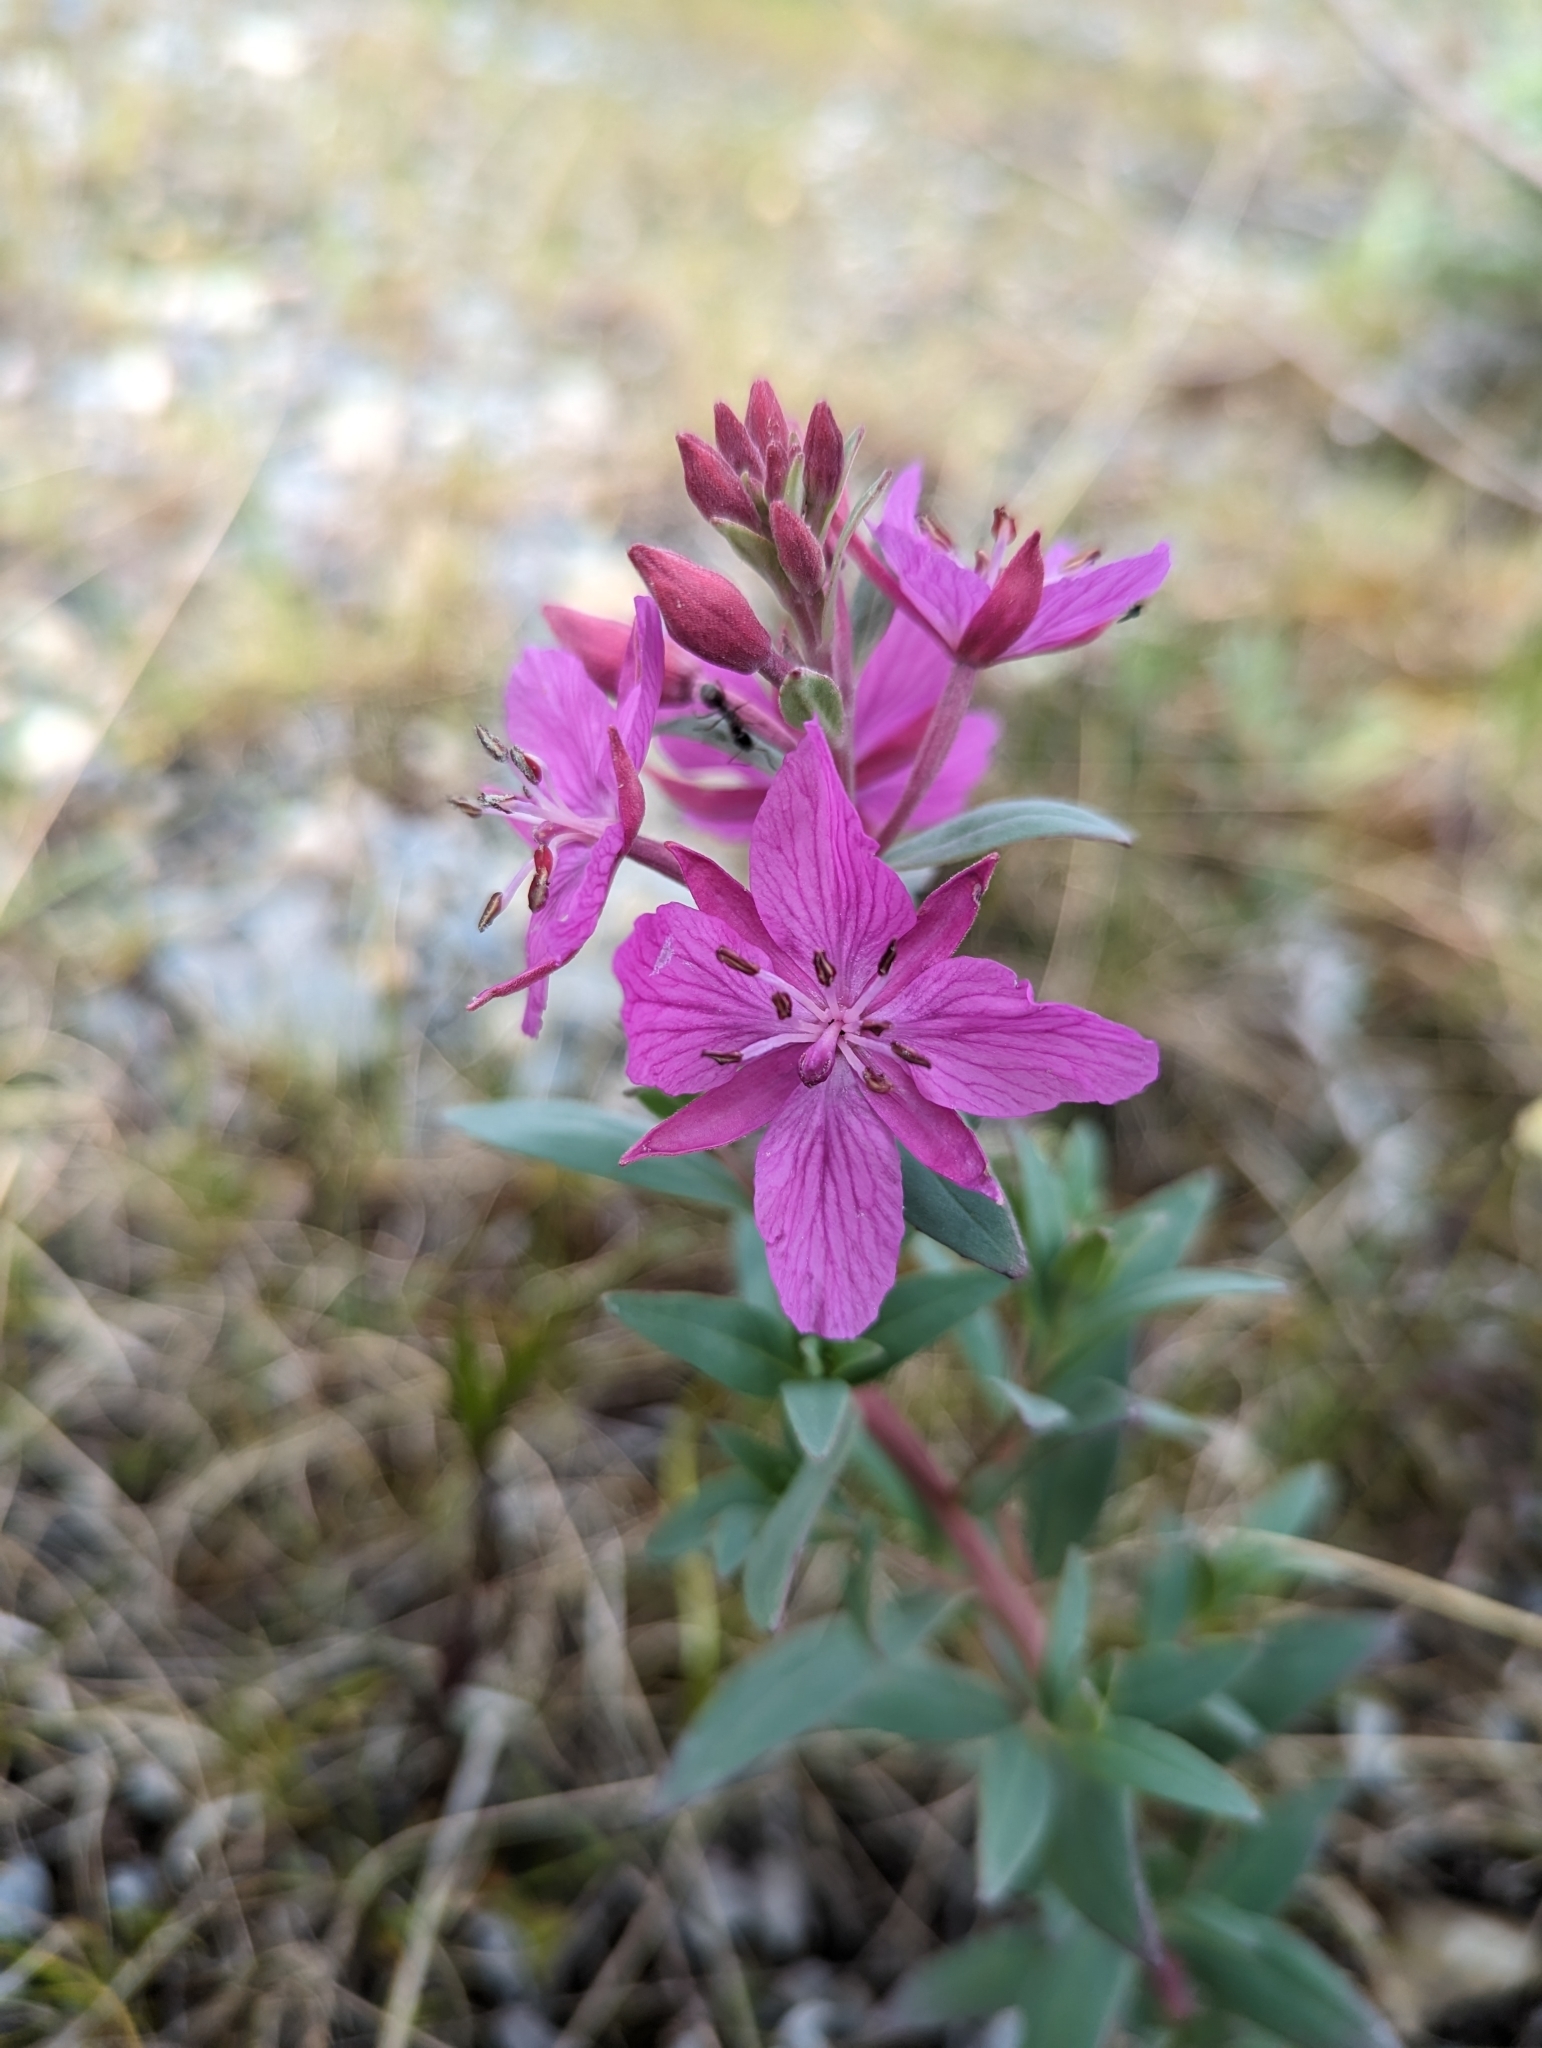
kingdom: Plantae
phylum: Tracheophyta
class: Magnoliopsida
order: Myrtales
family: Onagraceae
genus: Chamaenerion
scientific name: Chamaenerion latifolium
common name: Dwarf fireweed
